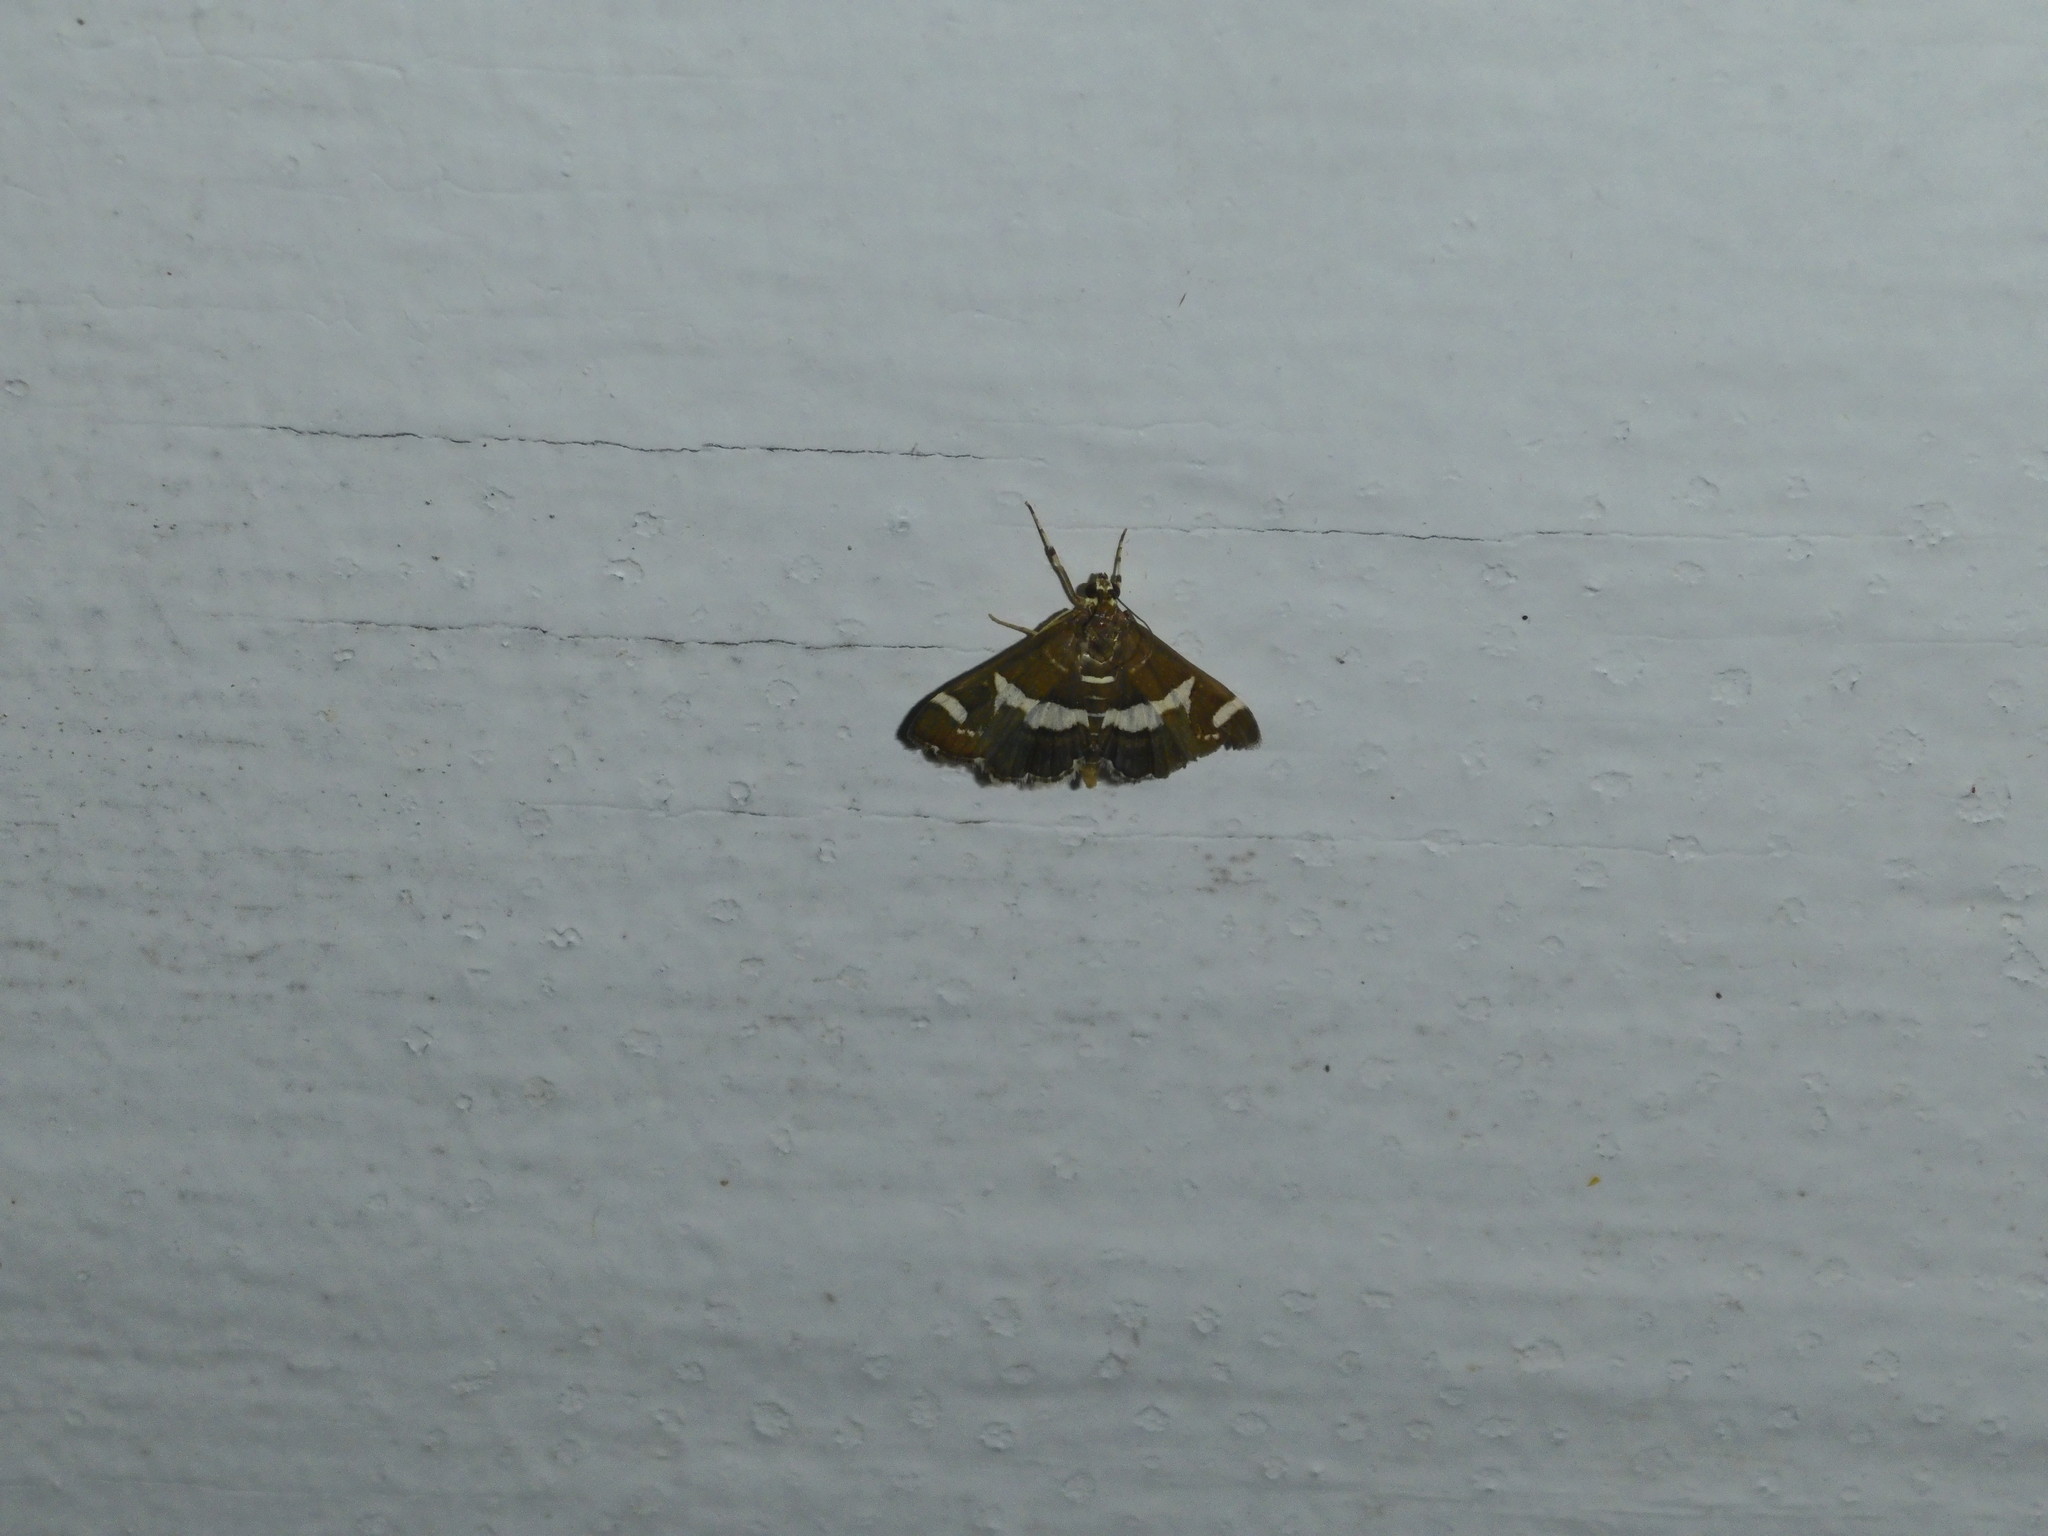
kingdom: Animalia
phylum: Arthropoda
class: Insecta
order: Lepidoptera
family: Crambidae
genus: Spoladea
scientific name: Spoladea recurvalis
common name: Beet webworm moth
